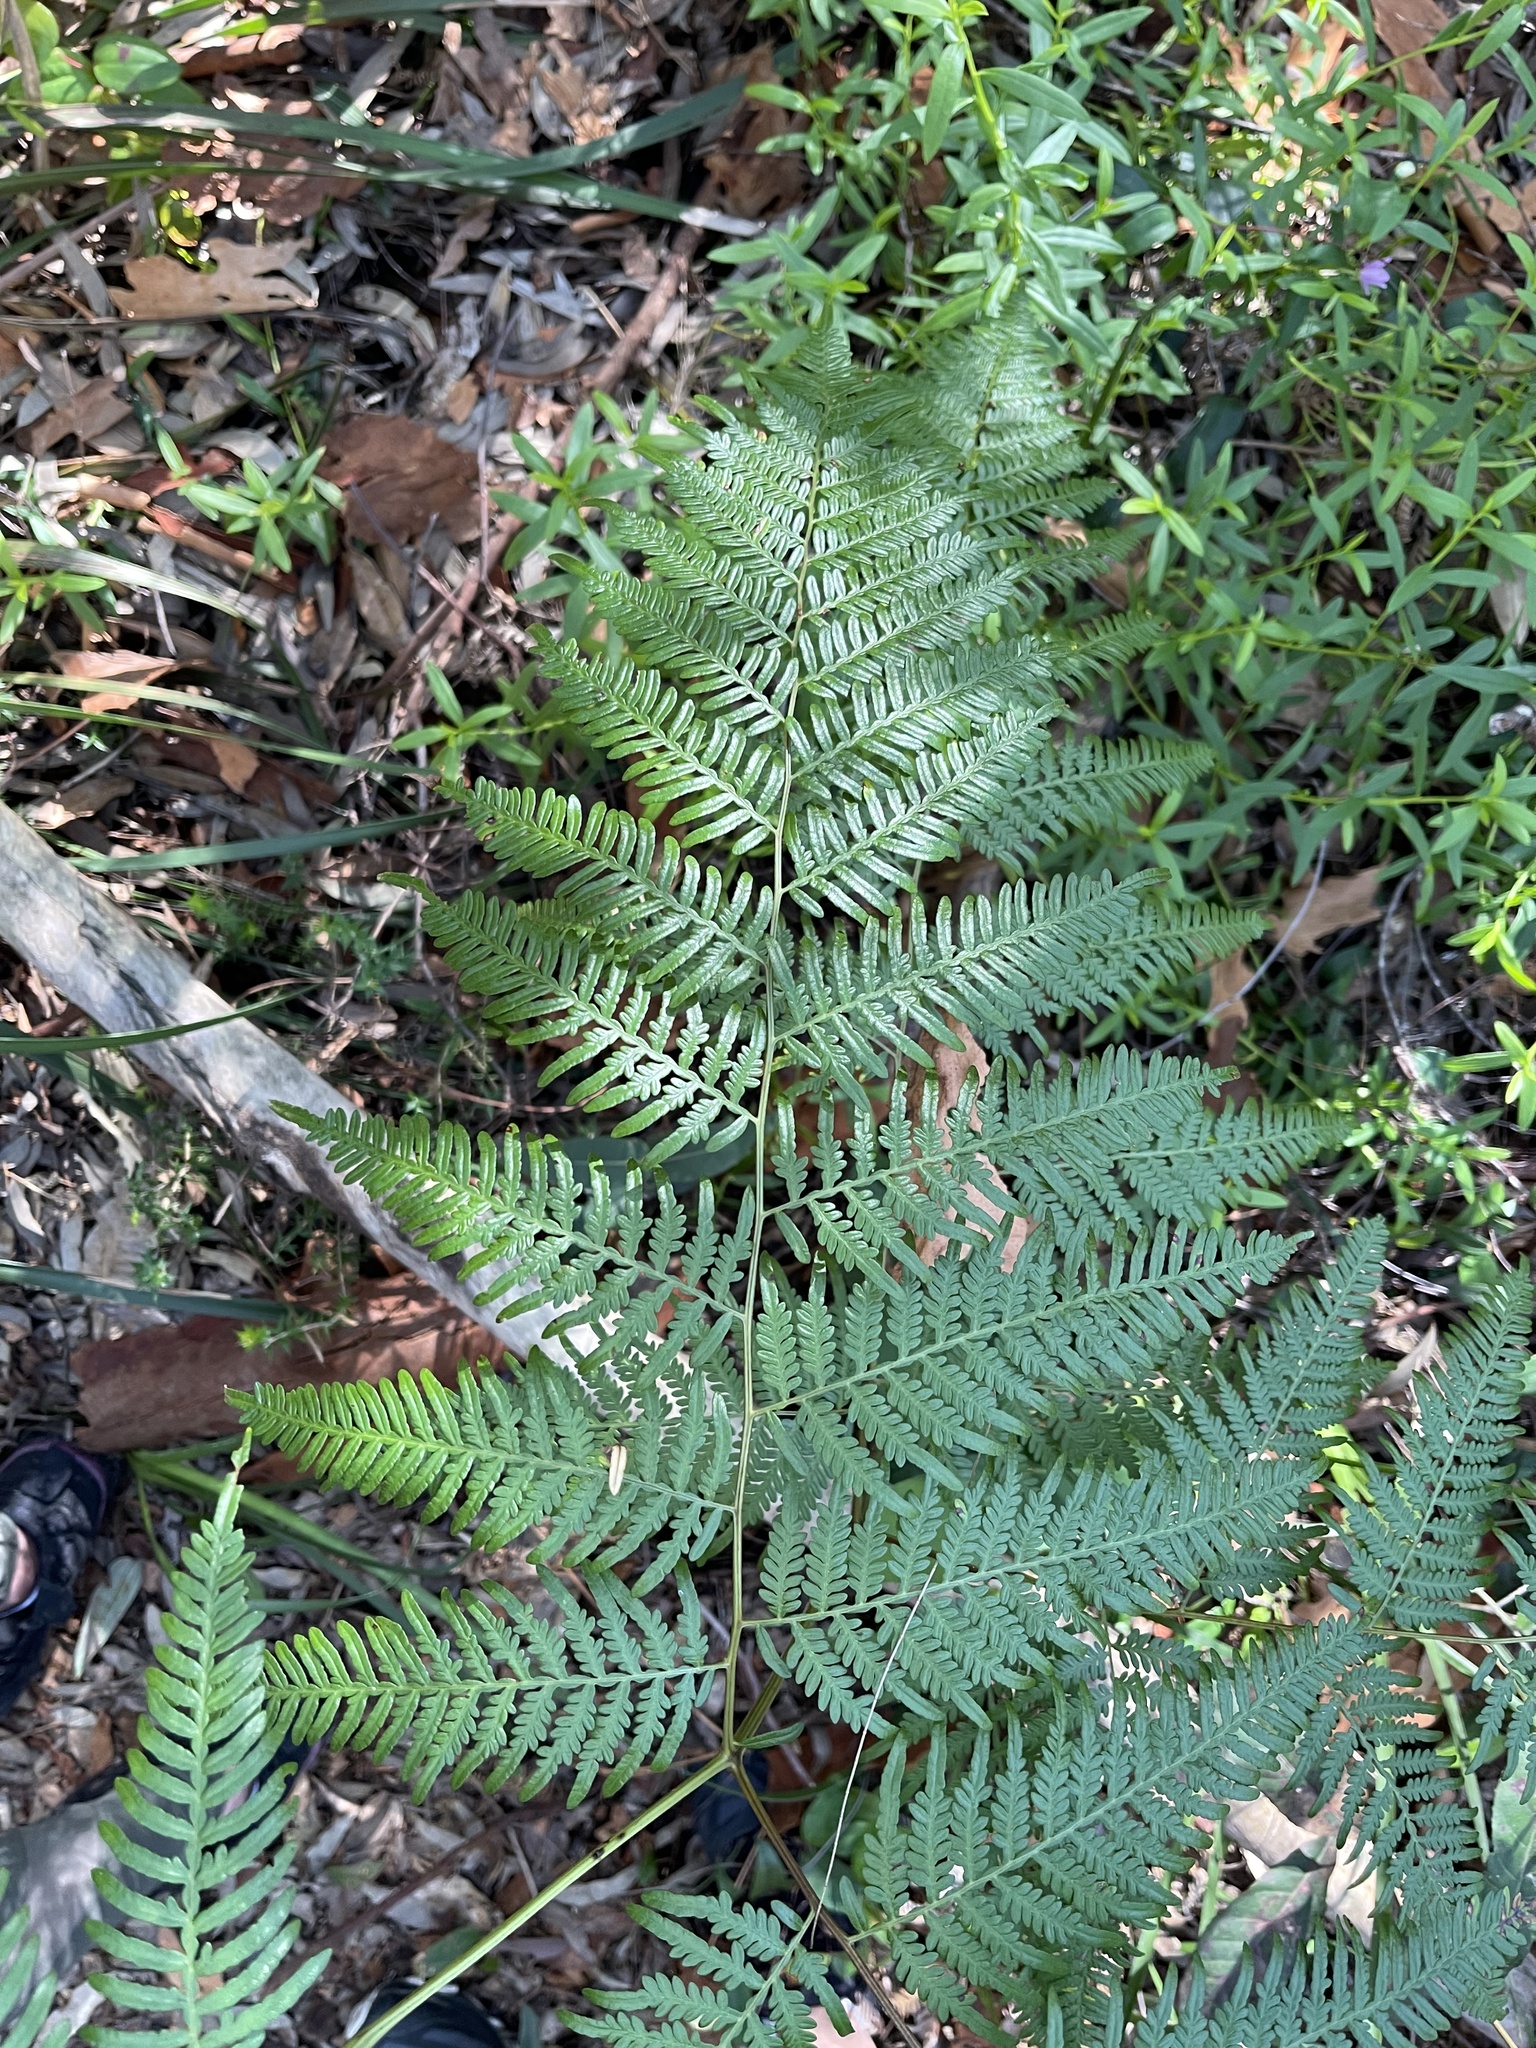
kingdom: Plantae
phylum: Tracheophyta
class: Polypodiopsida
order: Polypodiales
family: Dennstaedtiaceae
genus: Pteridium
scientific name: Pteridium esculentum
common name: Bracken fern
